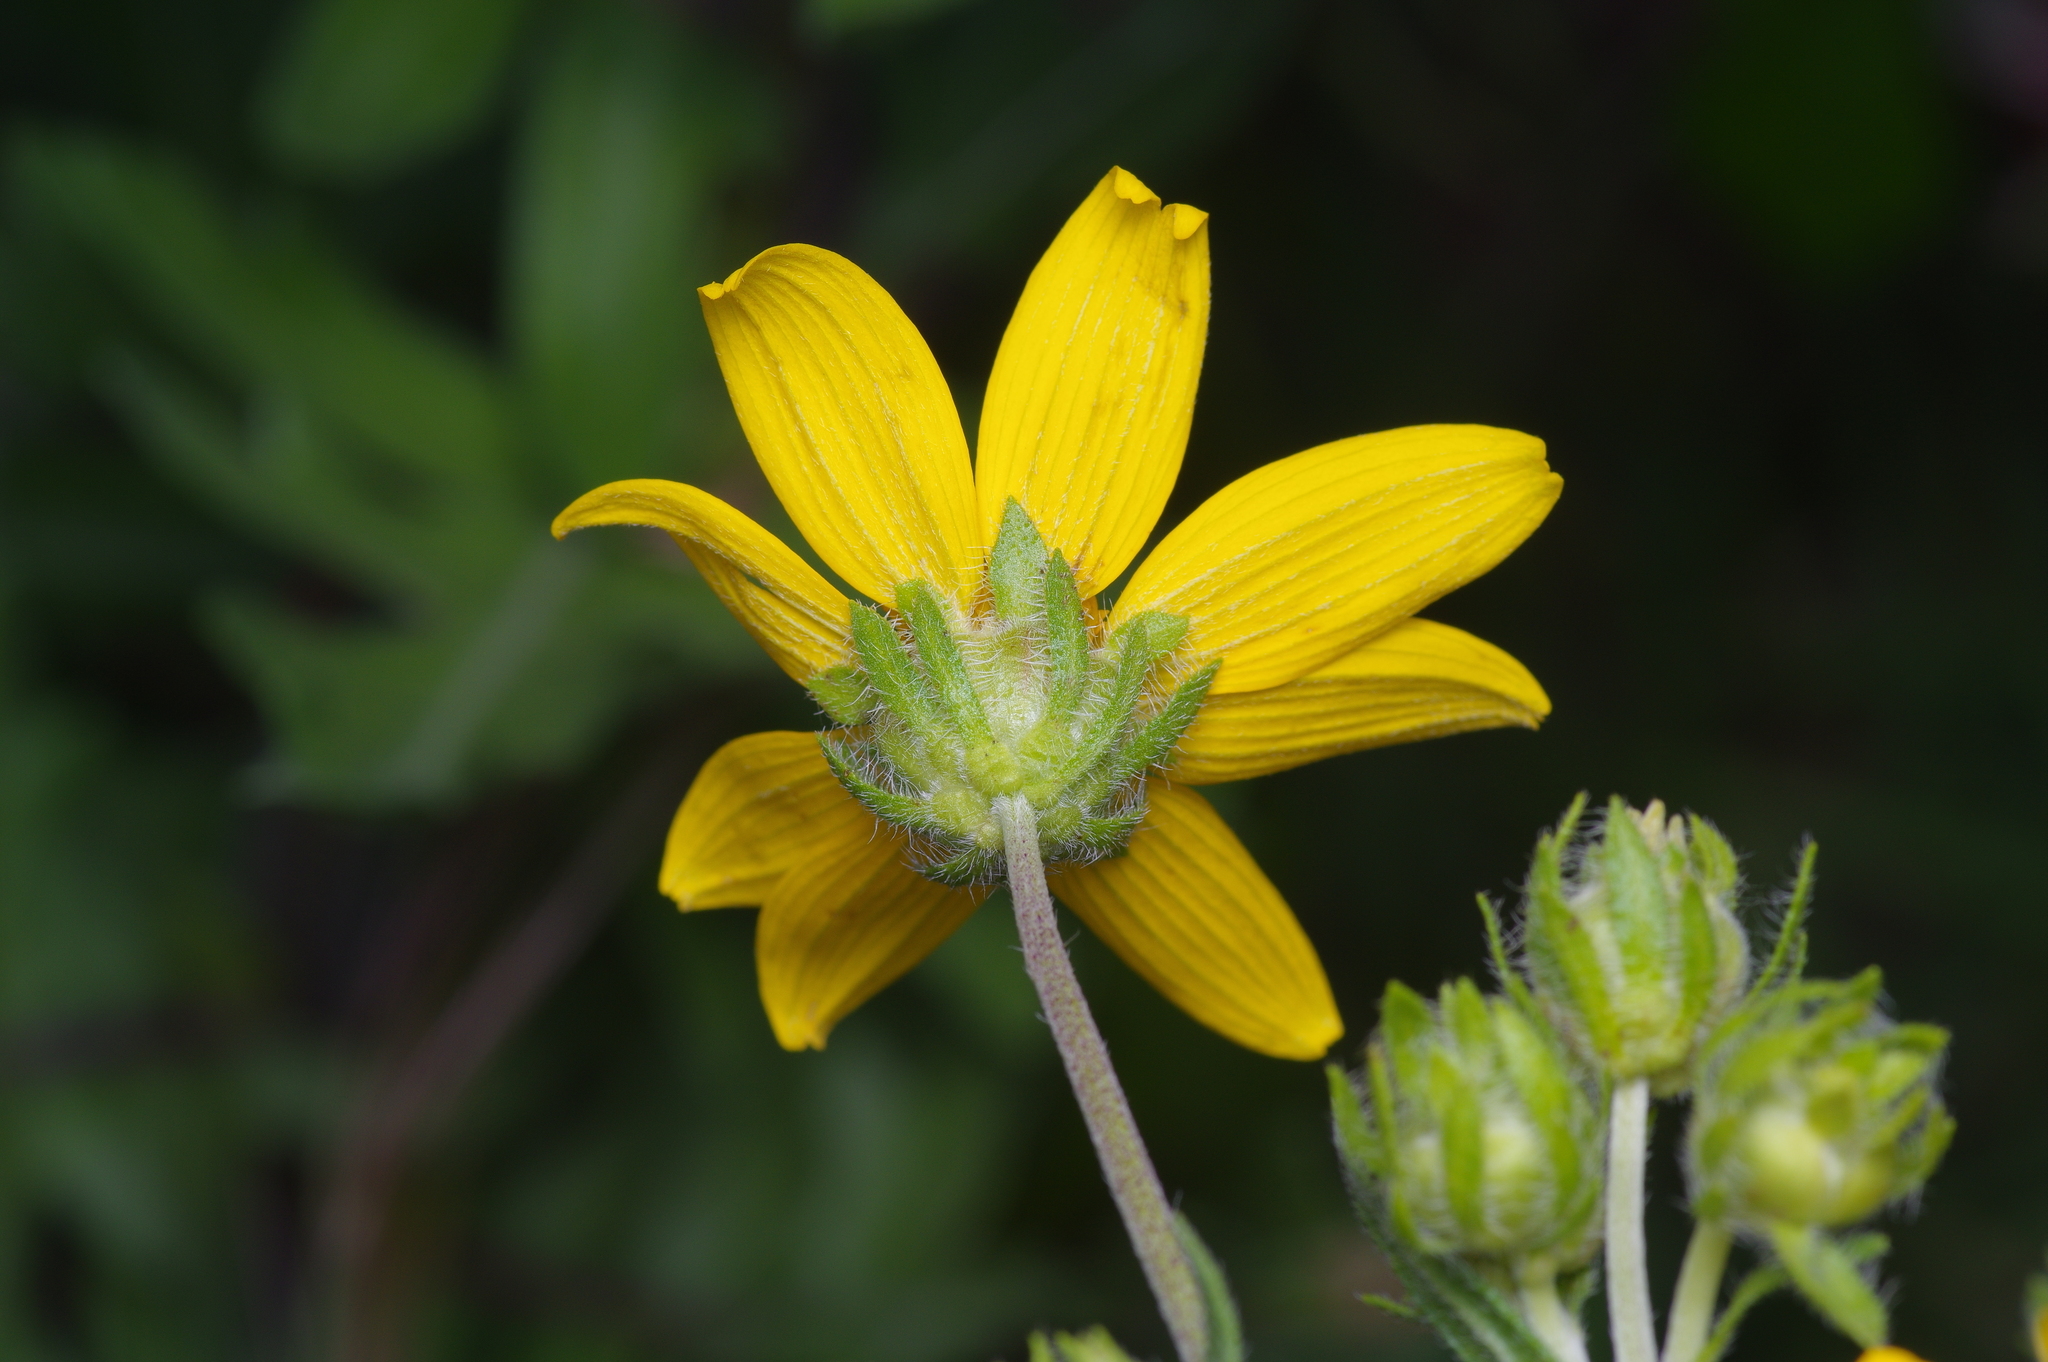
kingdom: Plantae
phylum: Tracheophyta
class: Magnoliopsida
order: Asterales
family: Asteraceae
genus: Engelmannia
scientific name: Engelmannia peristenia
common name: Engelmann's daisy
